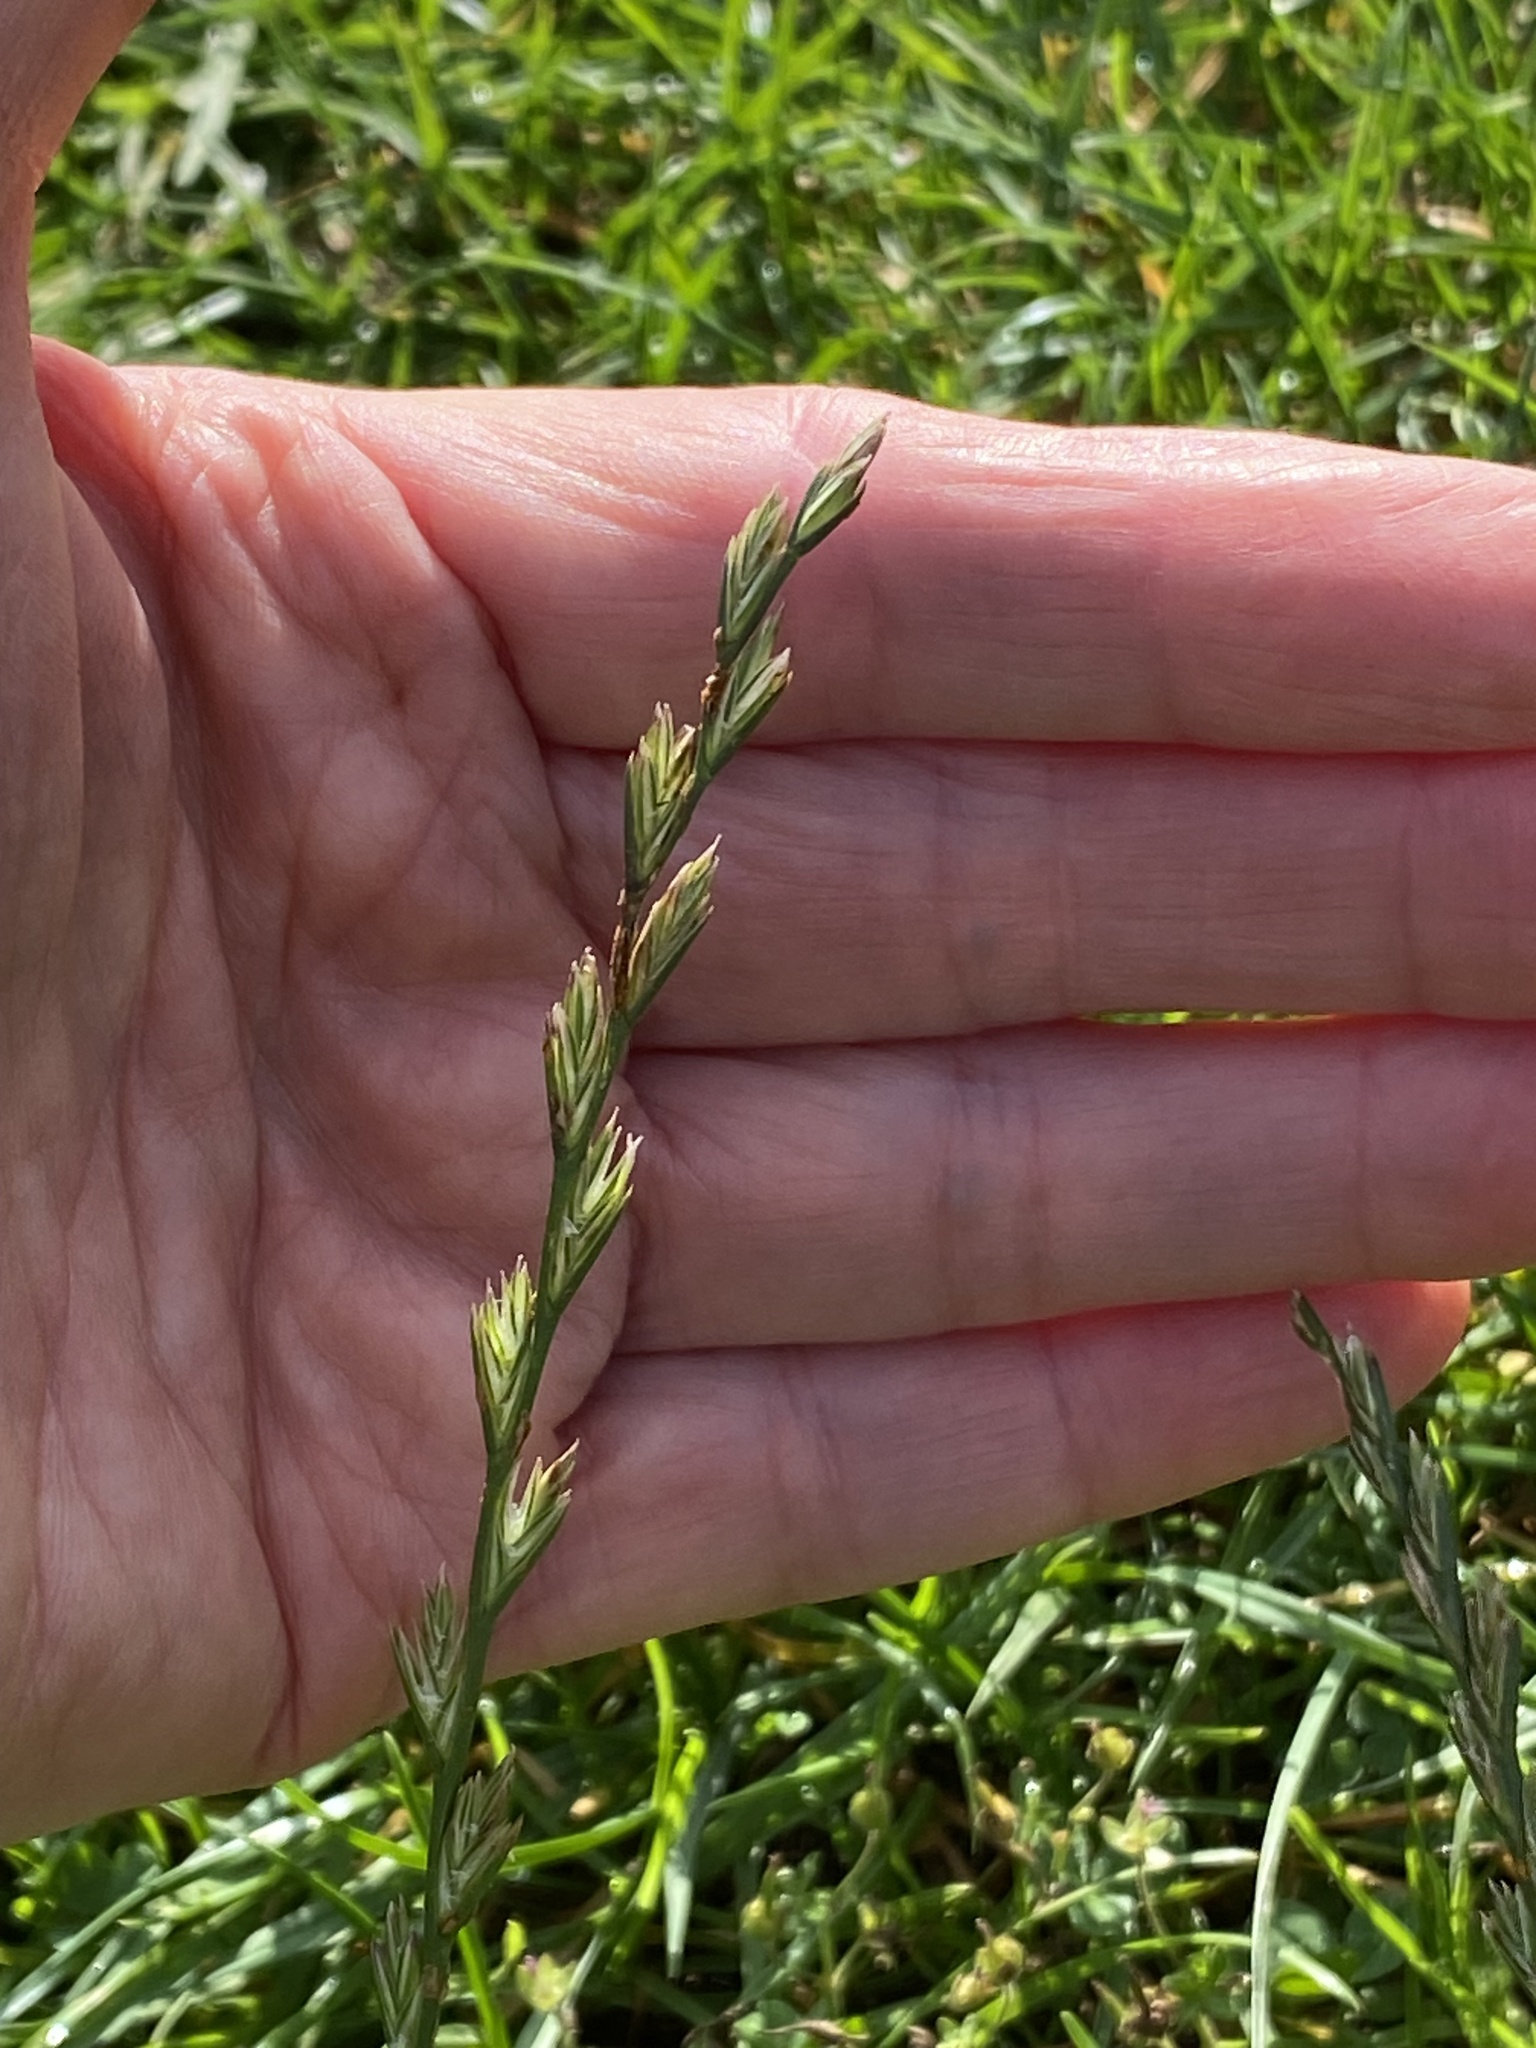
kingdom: Plantae
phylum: Tracheophyta
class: Liliopsida
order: Poales
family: Poaceae
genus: Lolium
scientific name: Lolium perenne
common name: Perennial ryegrass
